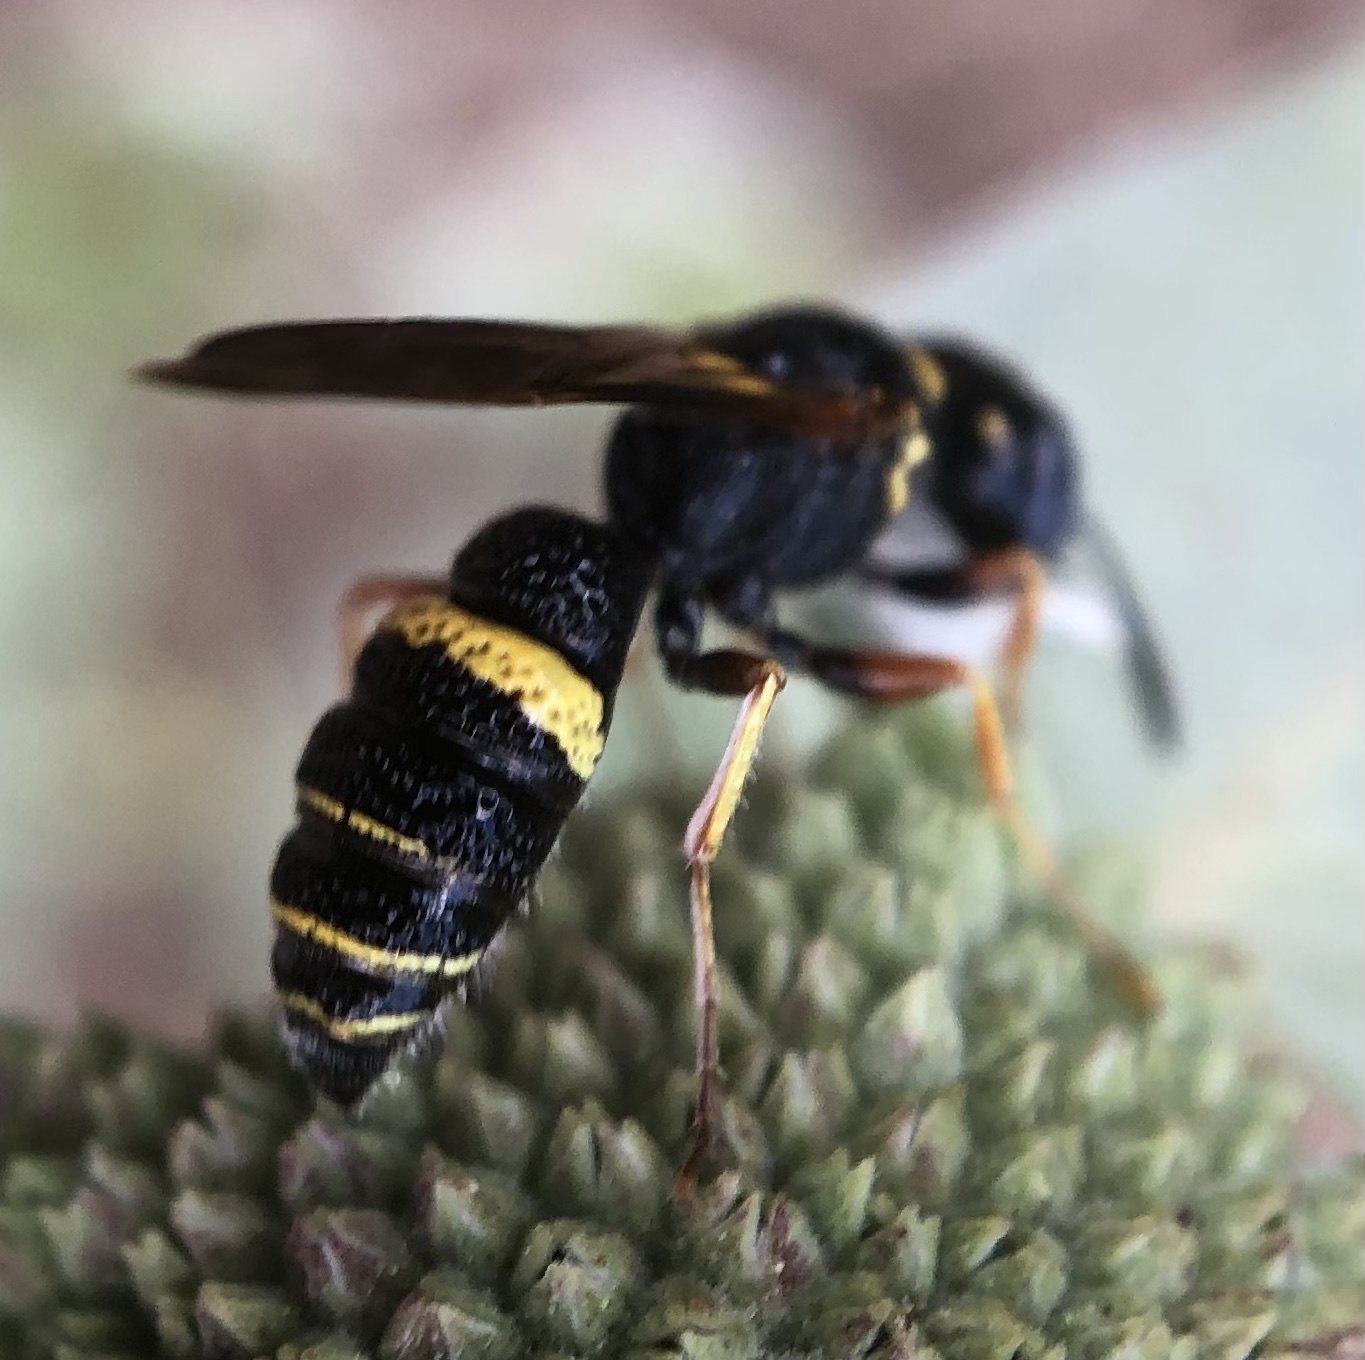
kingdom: Animalia
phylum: Arthropoda
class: Insecta
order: Hymenoptera
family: Crabronidae
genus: Philanthus
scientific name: Philanthus gibbosus
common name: Humped beewolf
